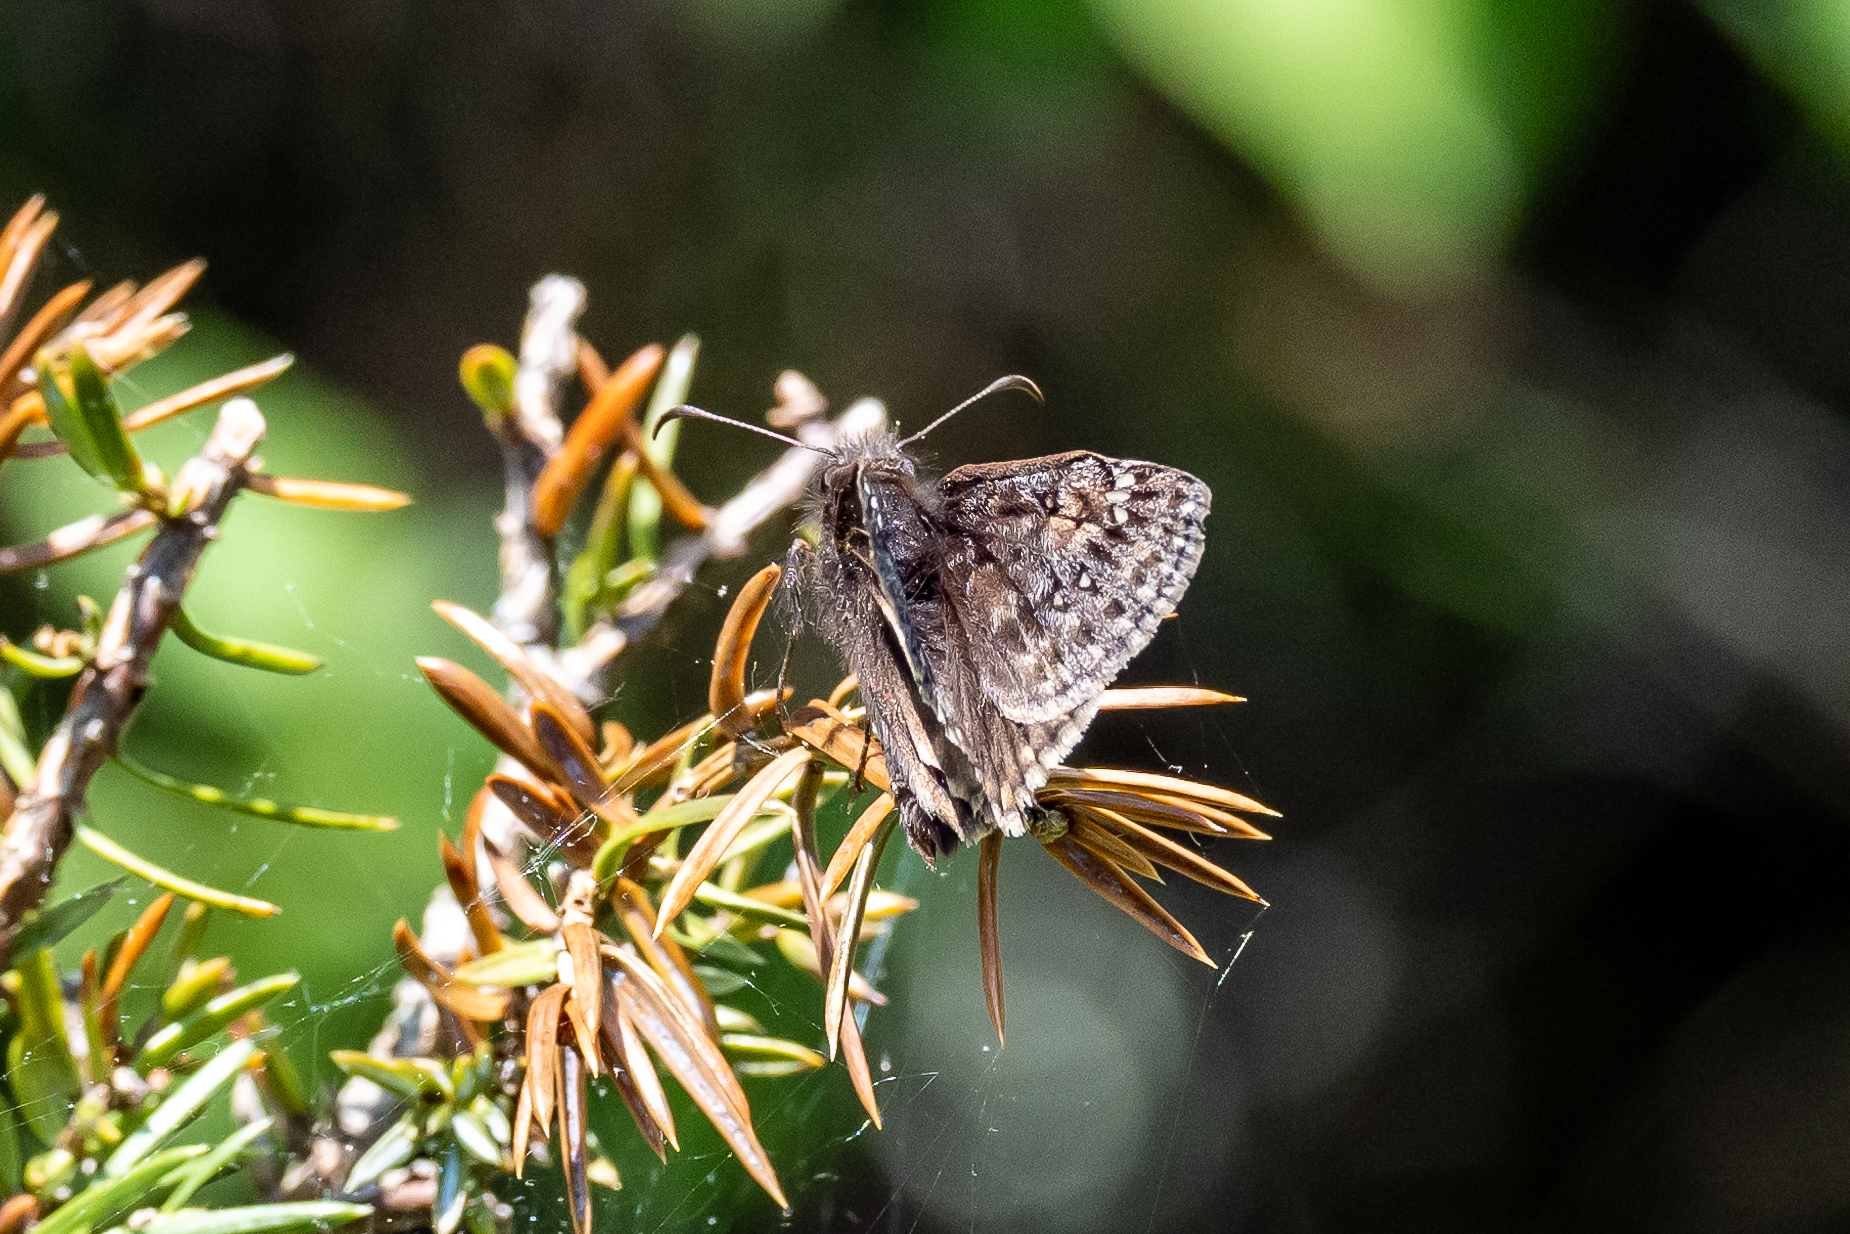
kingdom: Animalia
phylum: Arthropoda
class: Insecta
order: Lepidoptera
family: Hesperiidae
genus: Erynnis
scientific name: Erynnis juvenalis
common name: Juvenal's duskywing
